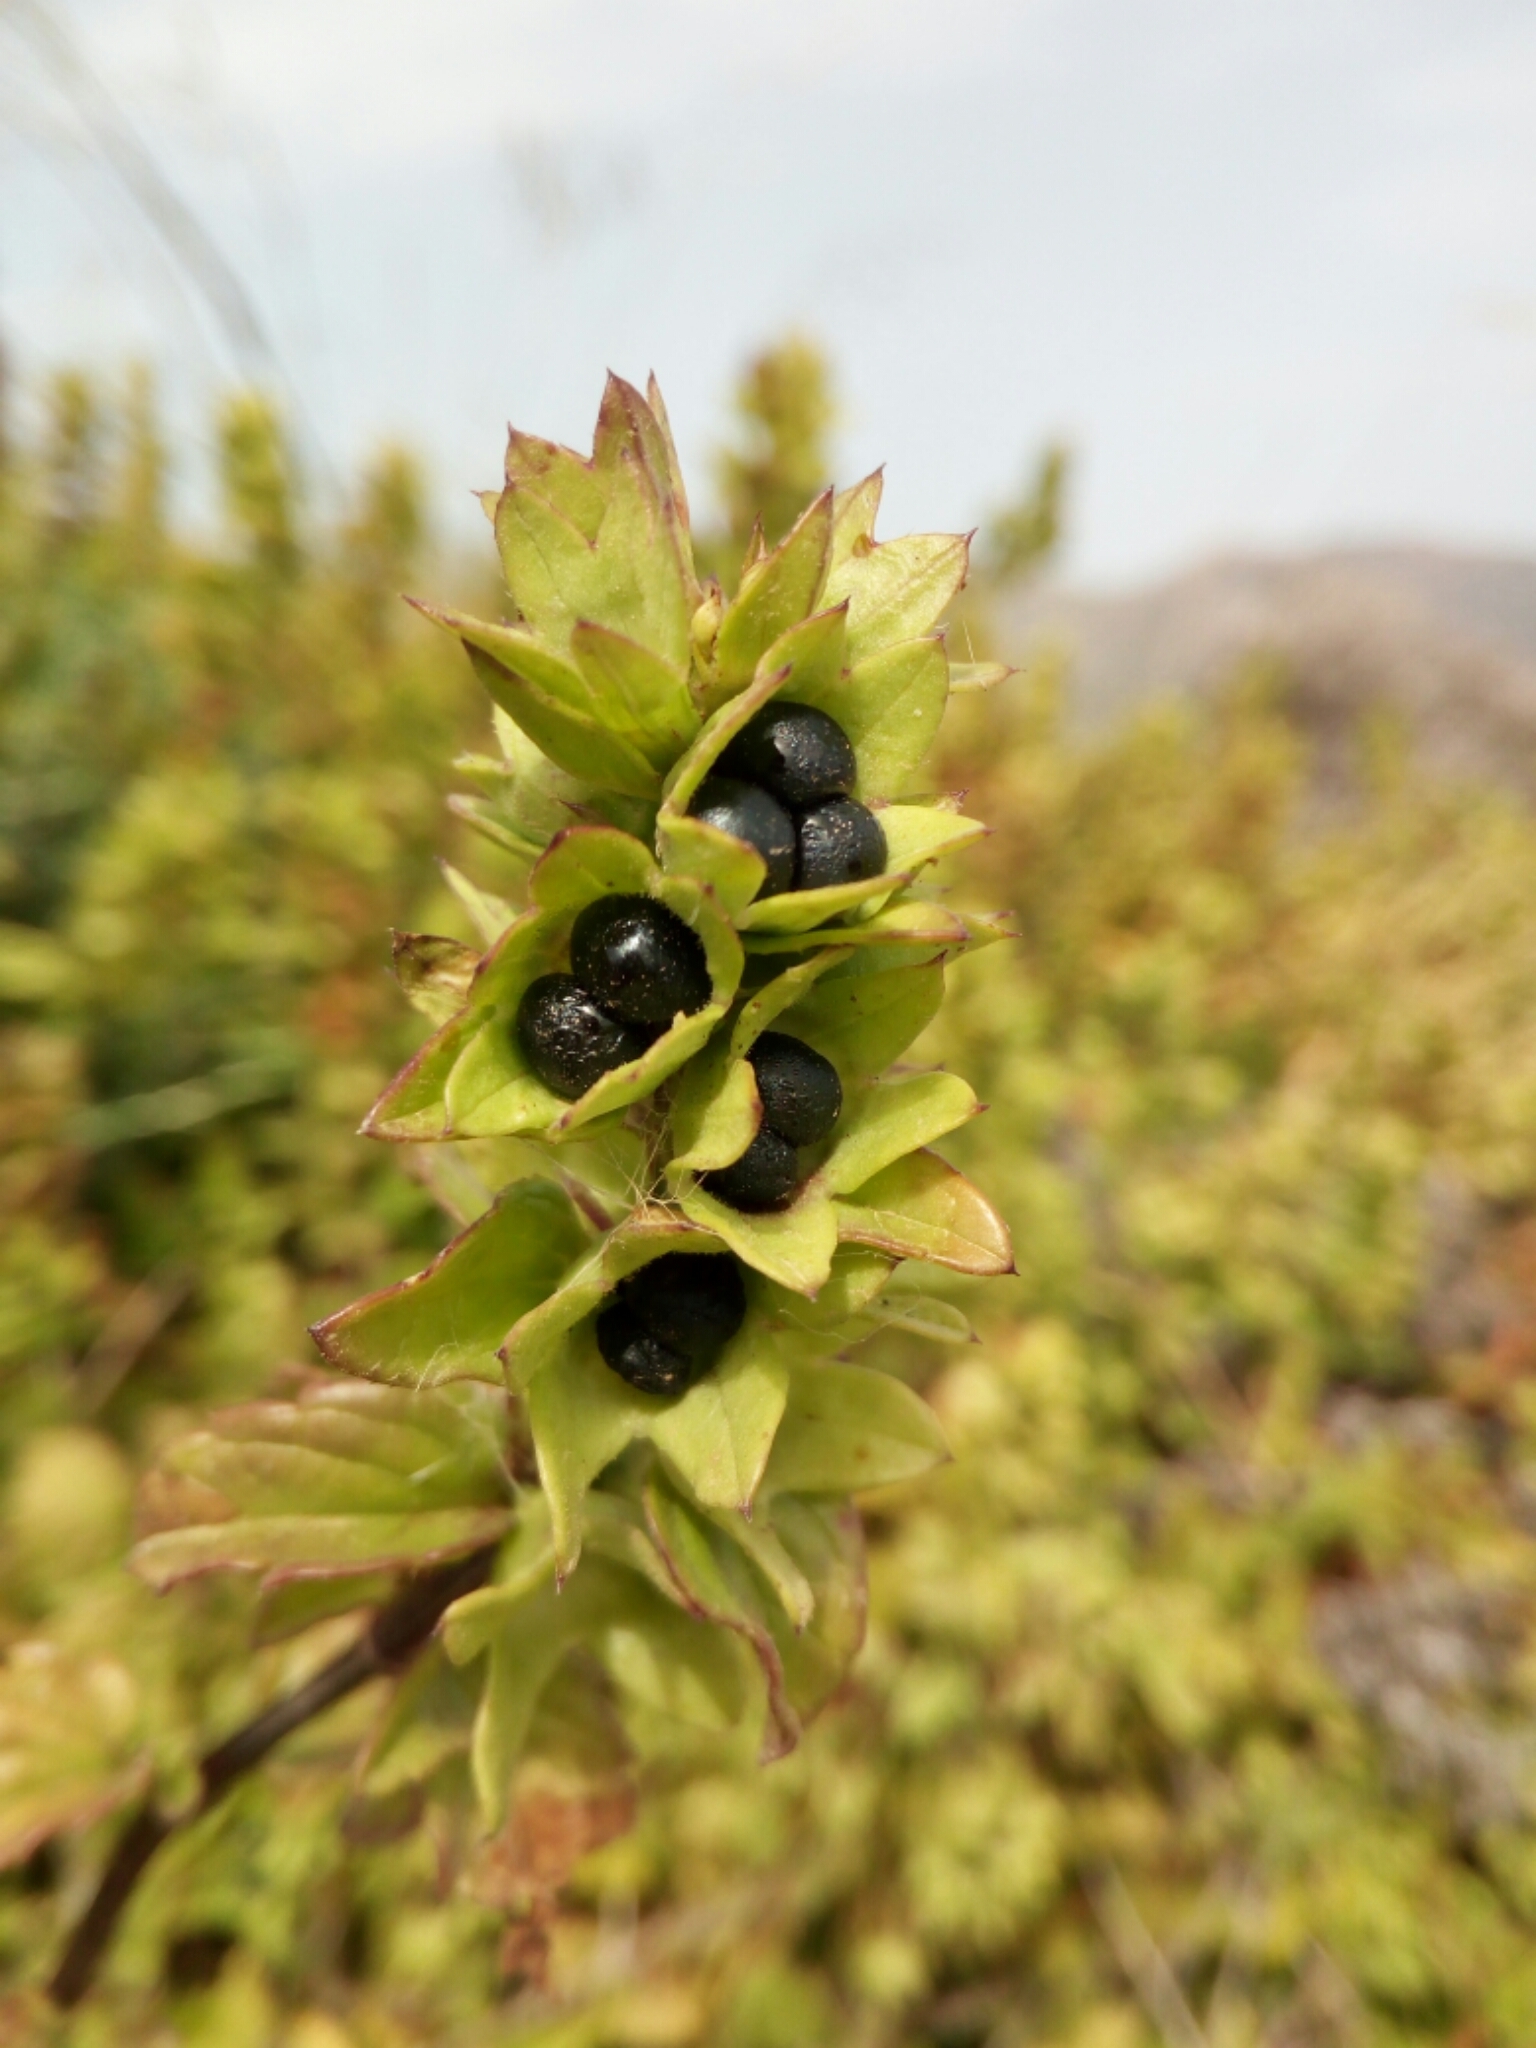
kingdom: Plantae
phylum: Tracheophyta
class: Magnoliopsida
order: Lamiales
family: Lamiaceae
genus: Prasium
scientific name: Prasium majus
